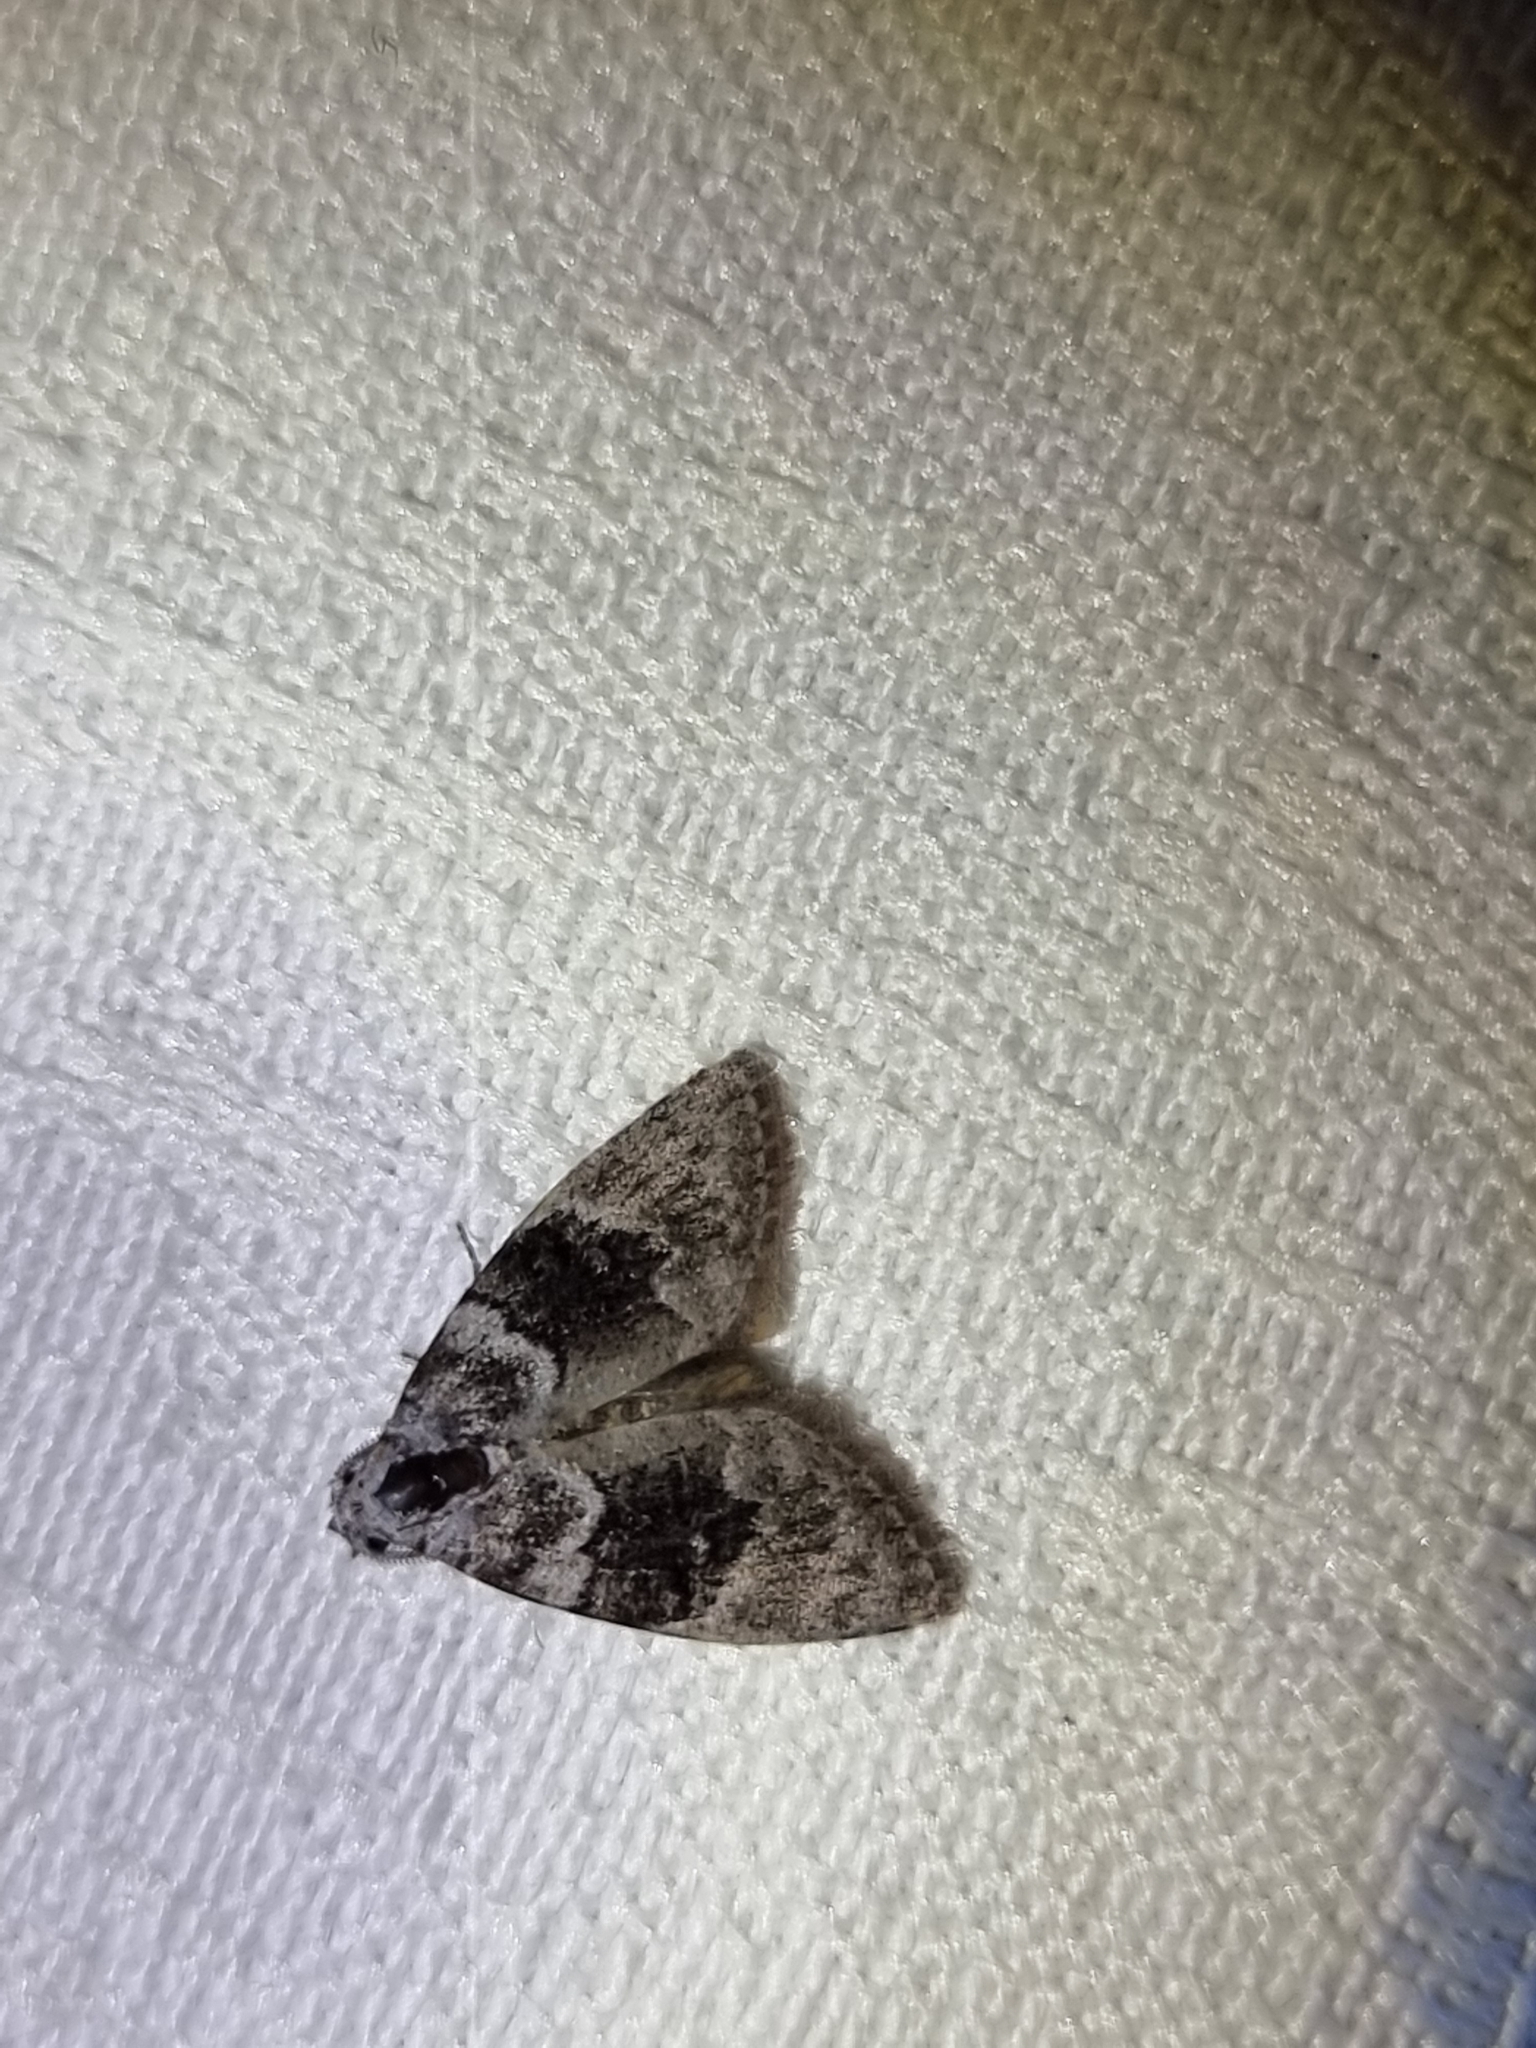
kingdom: Animalia
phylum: Arthropoda
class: Insecta
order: Lepidoptera
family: Nolidae
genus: Uraba
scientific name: Uraba lugens
